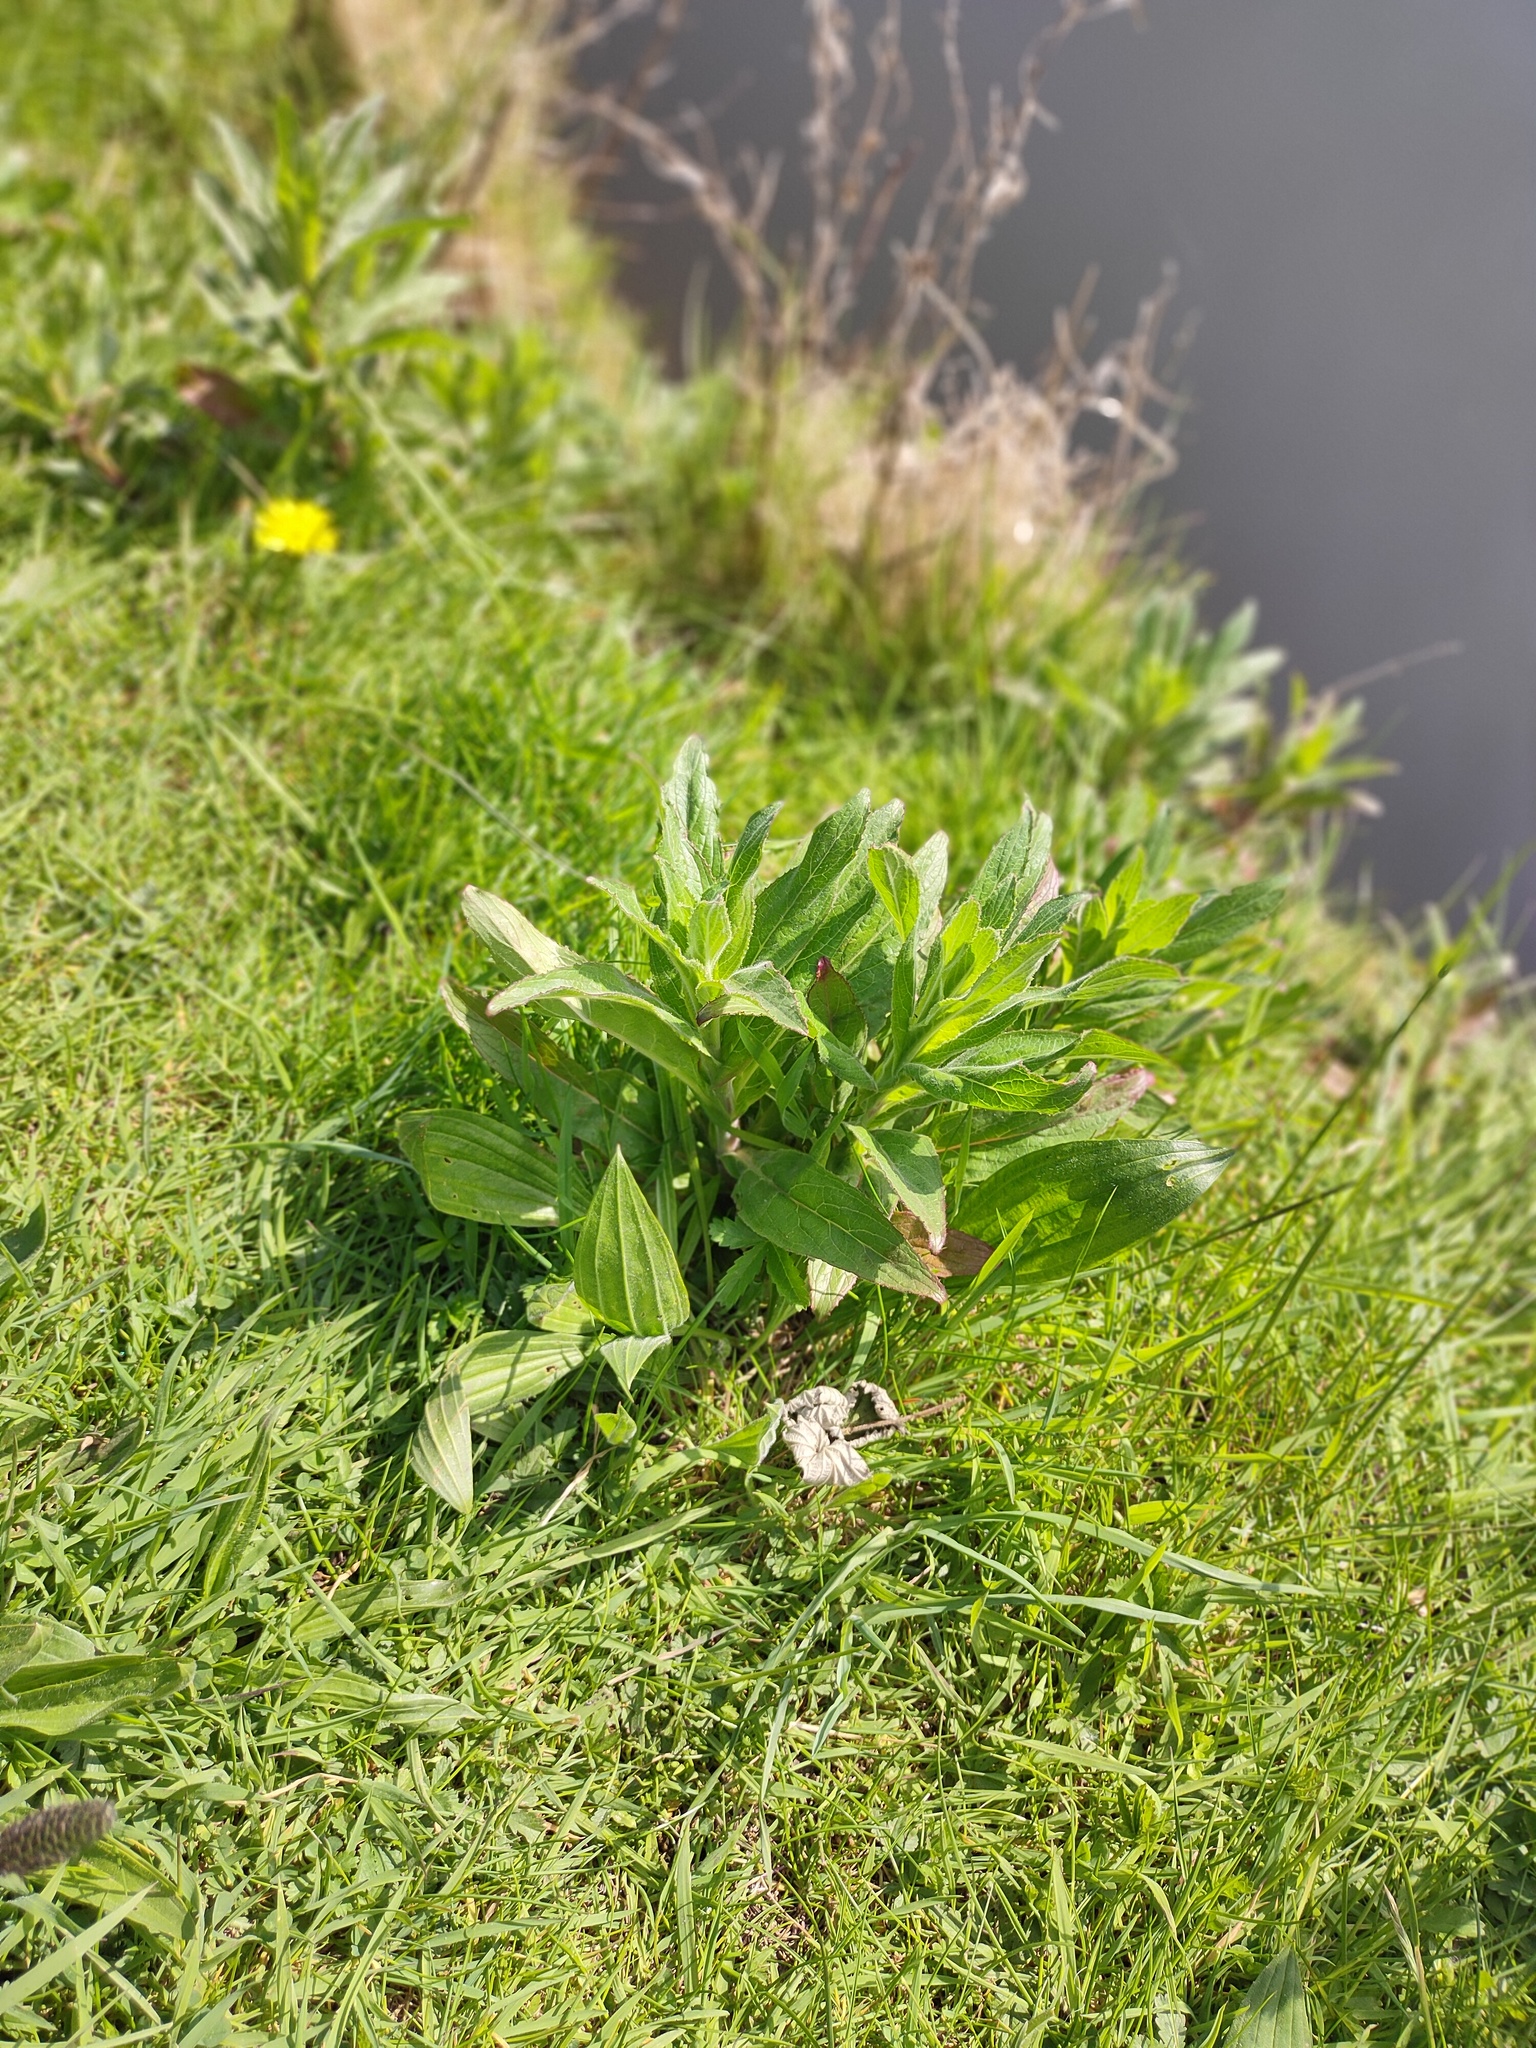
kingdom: Plantae
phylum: Tracheophyta
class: Magnoliopsida
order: Lamiales
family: Plantaginaceae
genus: Plantago
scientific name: Plantago lanceolata
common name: Ribwort plantain
